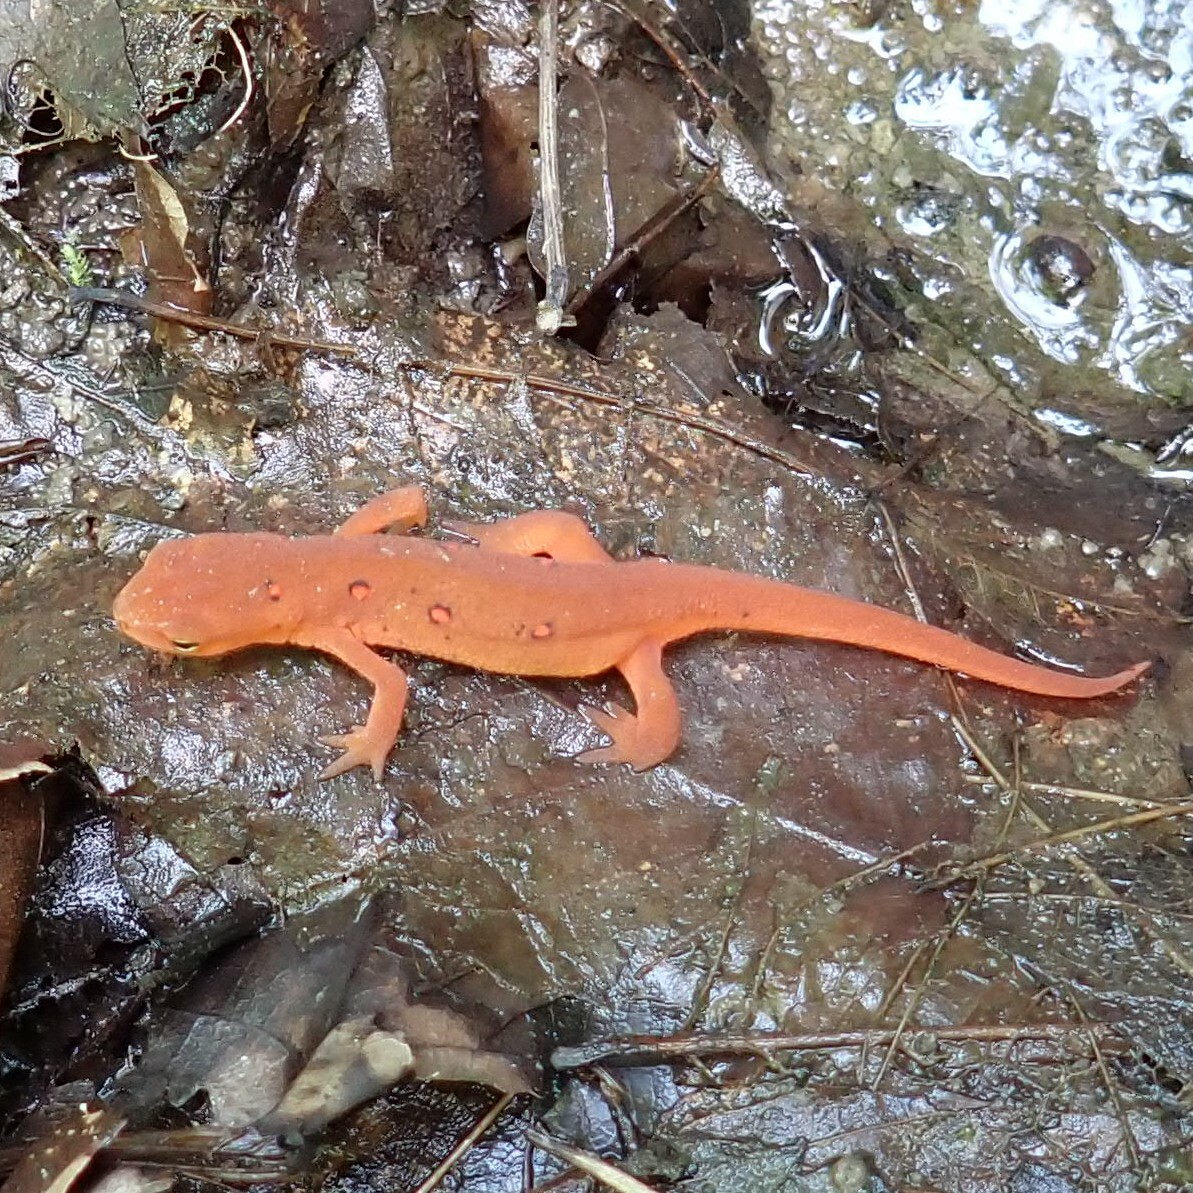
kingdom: Animalia
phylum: Chordata
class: Amphibia
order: Caudata
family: Salamandridae
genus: Notophthalmus
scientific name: Notophthalmus viridescens
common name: Eastern newt
